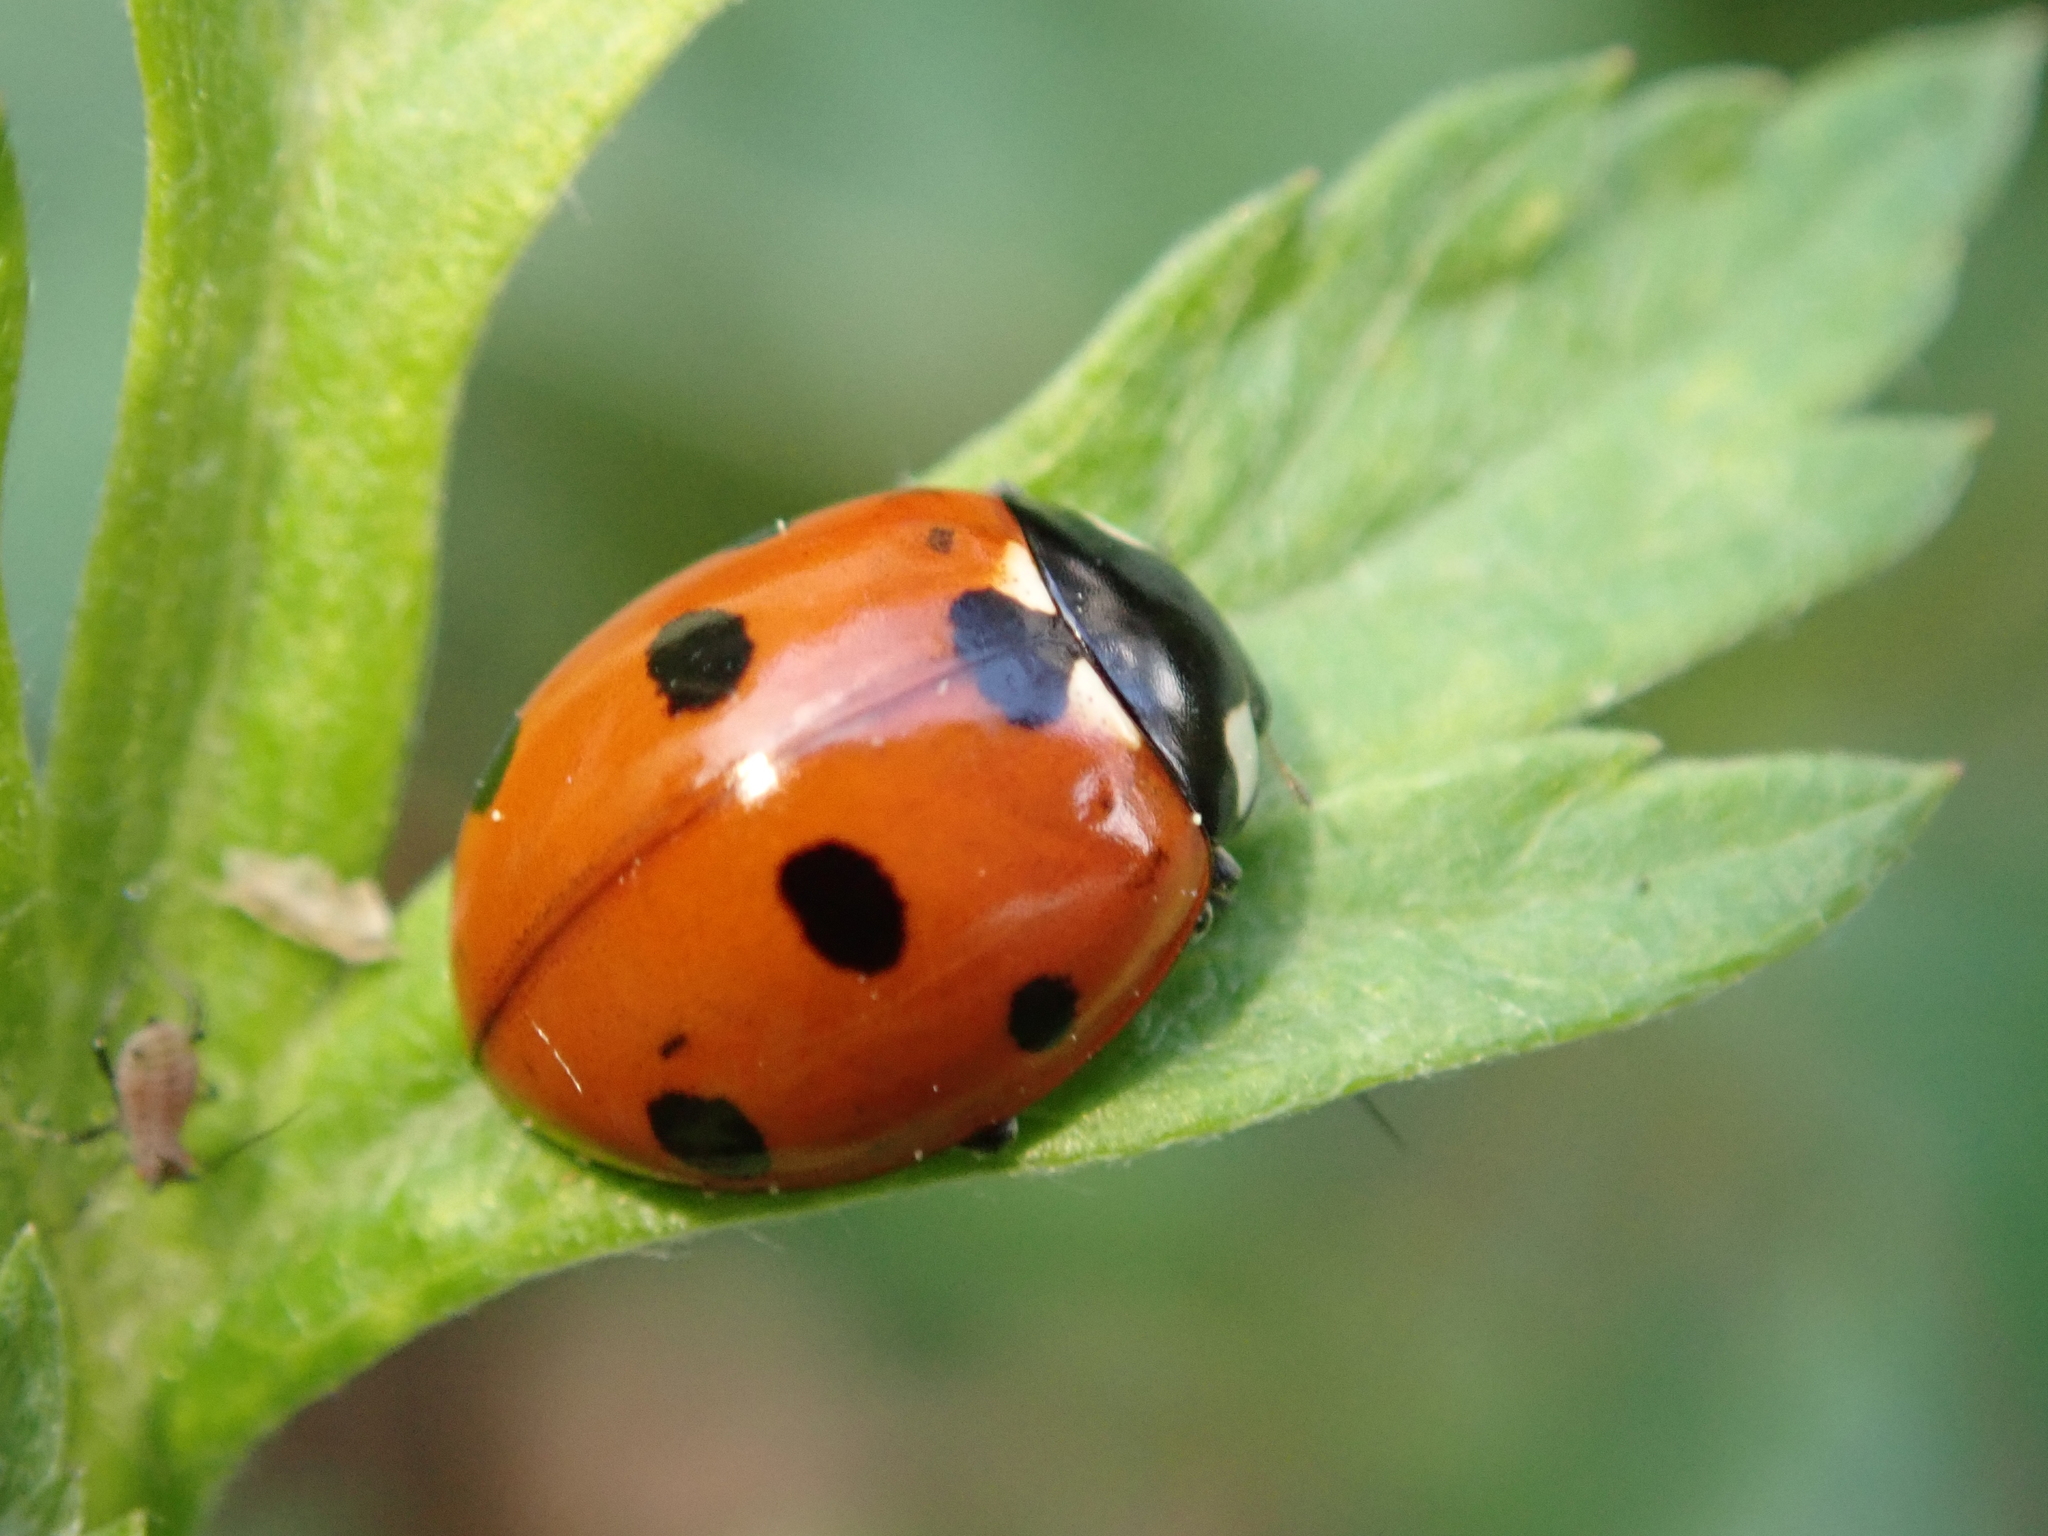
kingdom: Animalia
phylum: Arthropoda
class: Insecta
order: Coleoptera
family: Coccinellidae
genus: Coccinella
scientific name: Coccinella septempunctata
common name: Sevenspotted lady beetle
